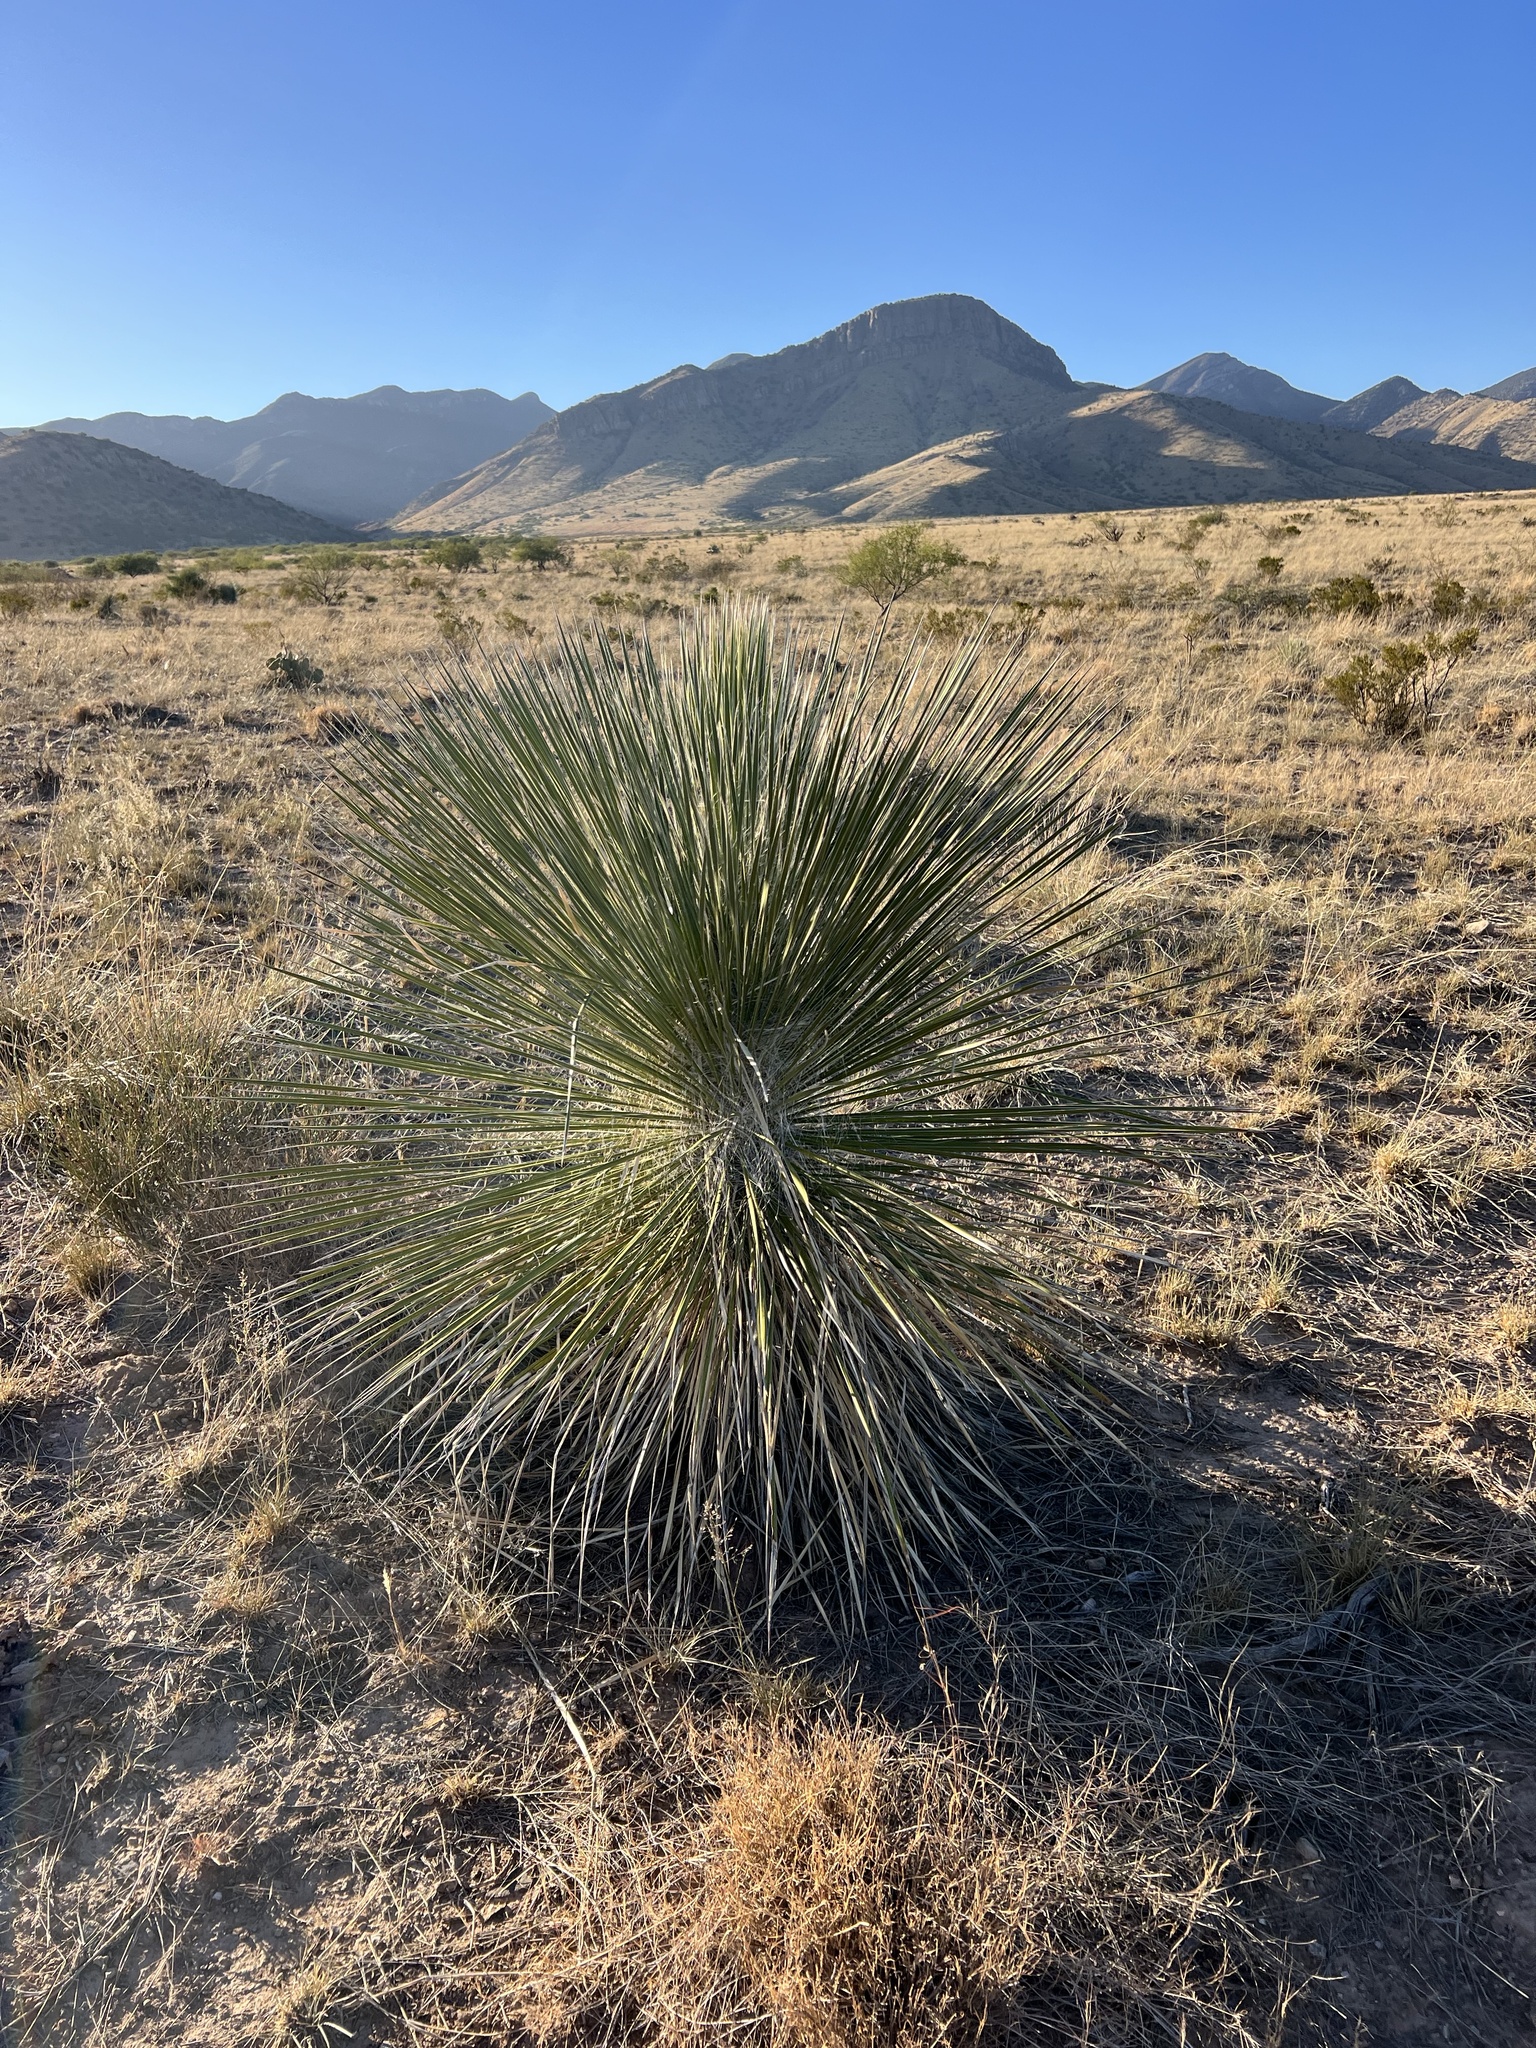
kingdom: Plantae
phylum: Tracheophyta
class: Liliopsida
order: Asparagales
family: Asparagaceae
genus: Yucca
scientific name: Yucca elata
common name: Palmella
